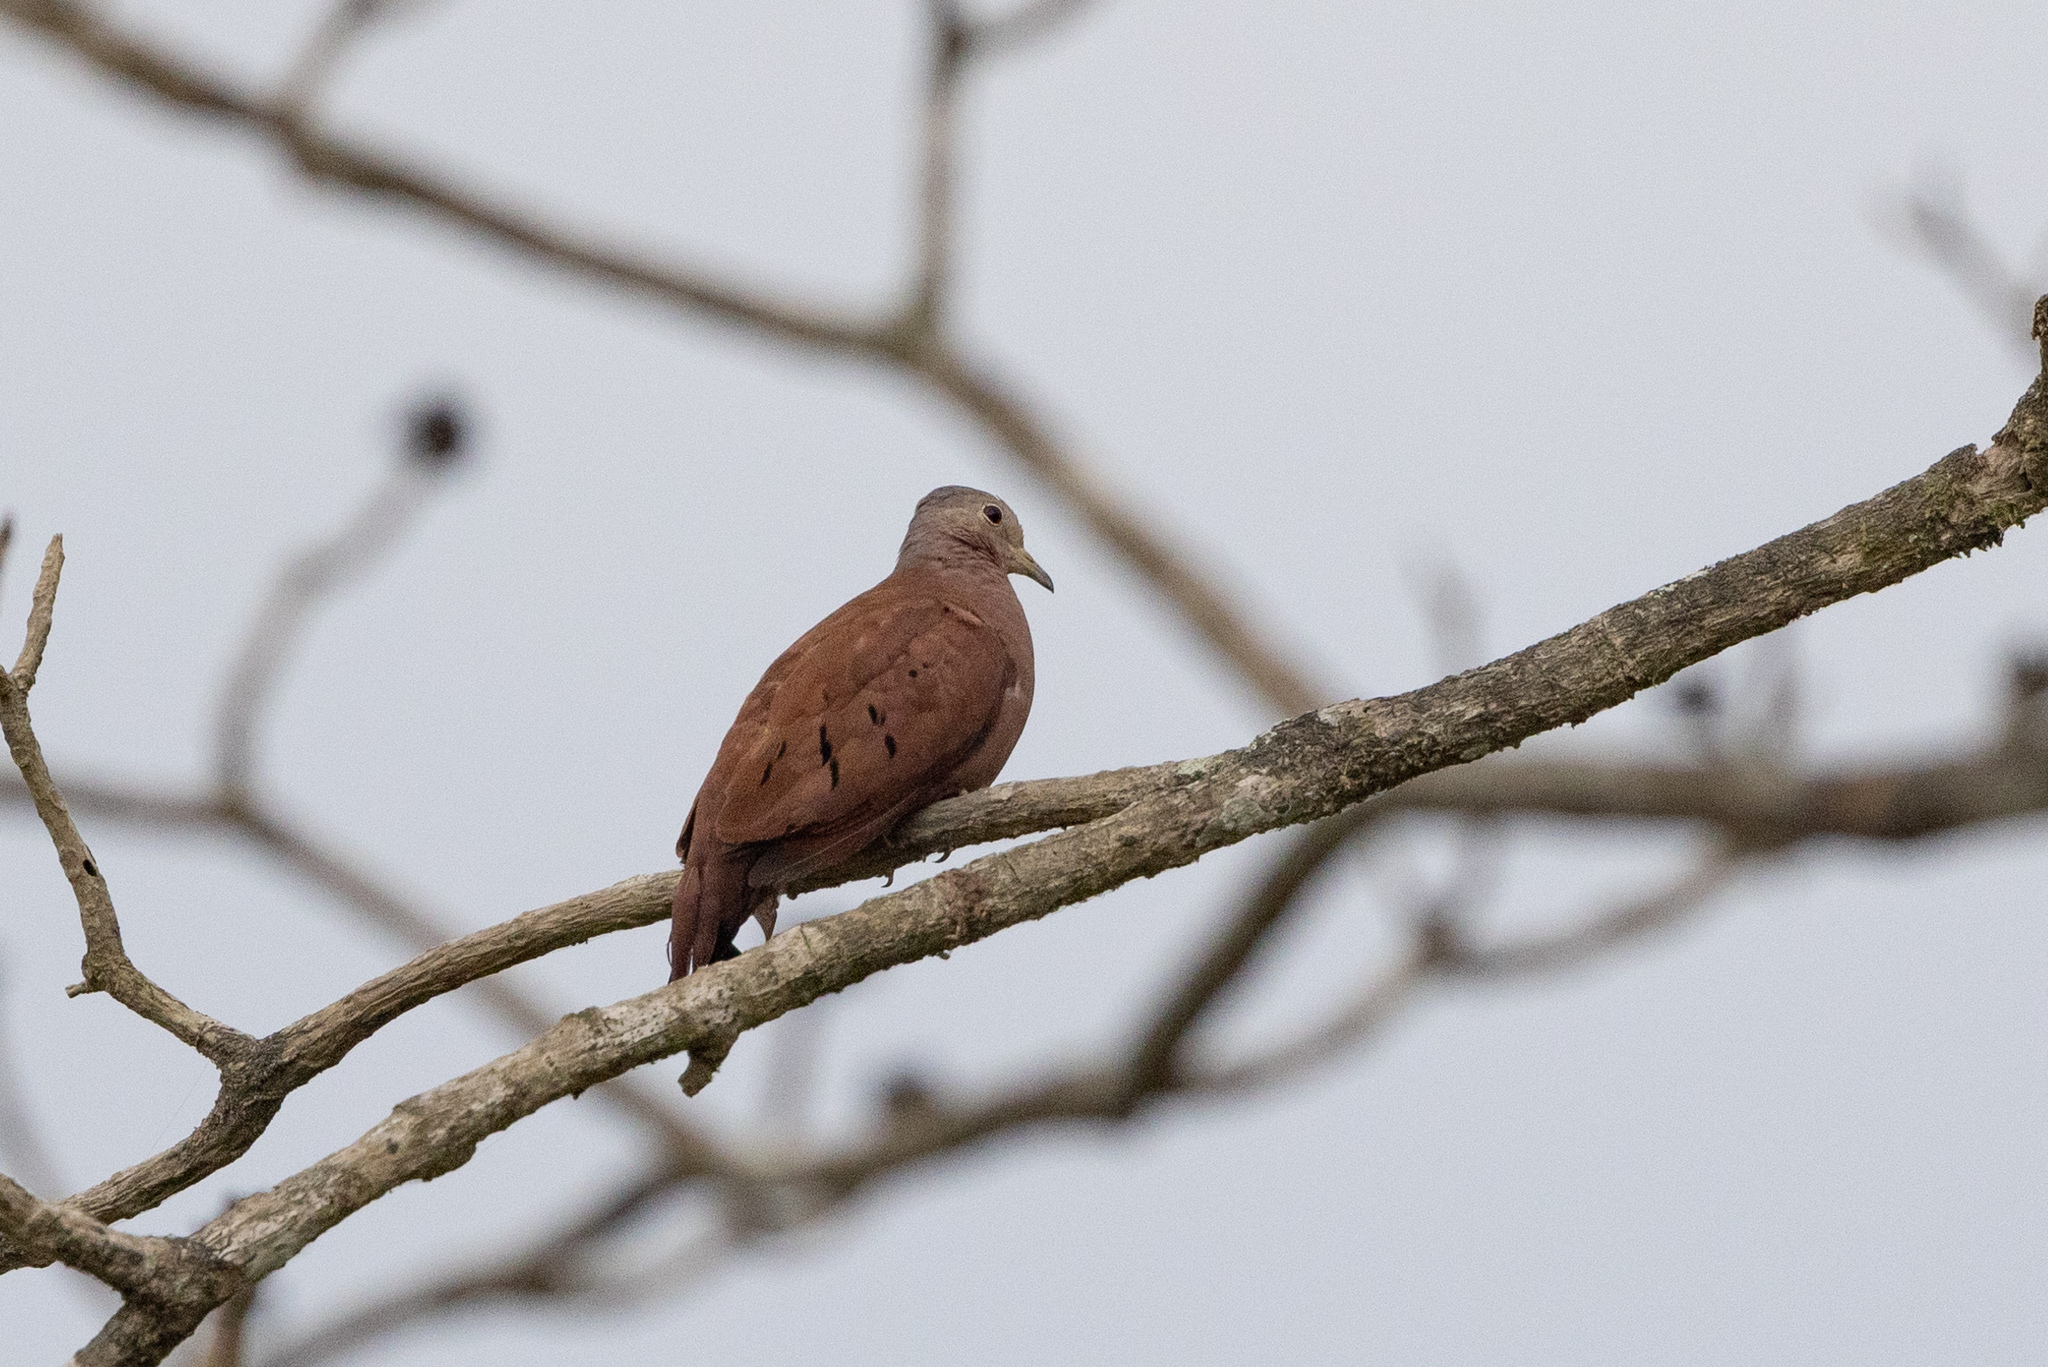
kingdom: Animalia
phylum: Chordata
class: Aves
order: Columbiformes
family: Columbidae
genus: Columbina
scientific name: Columbina talpacoti
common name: Ruddy ground dove
